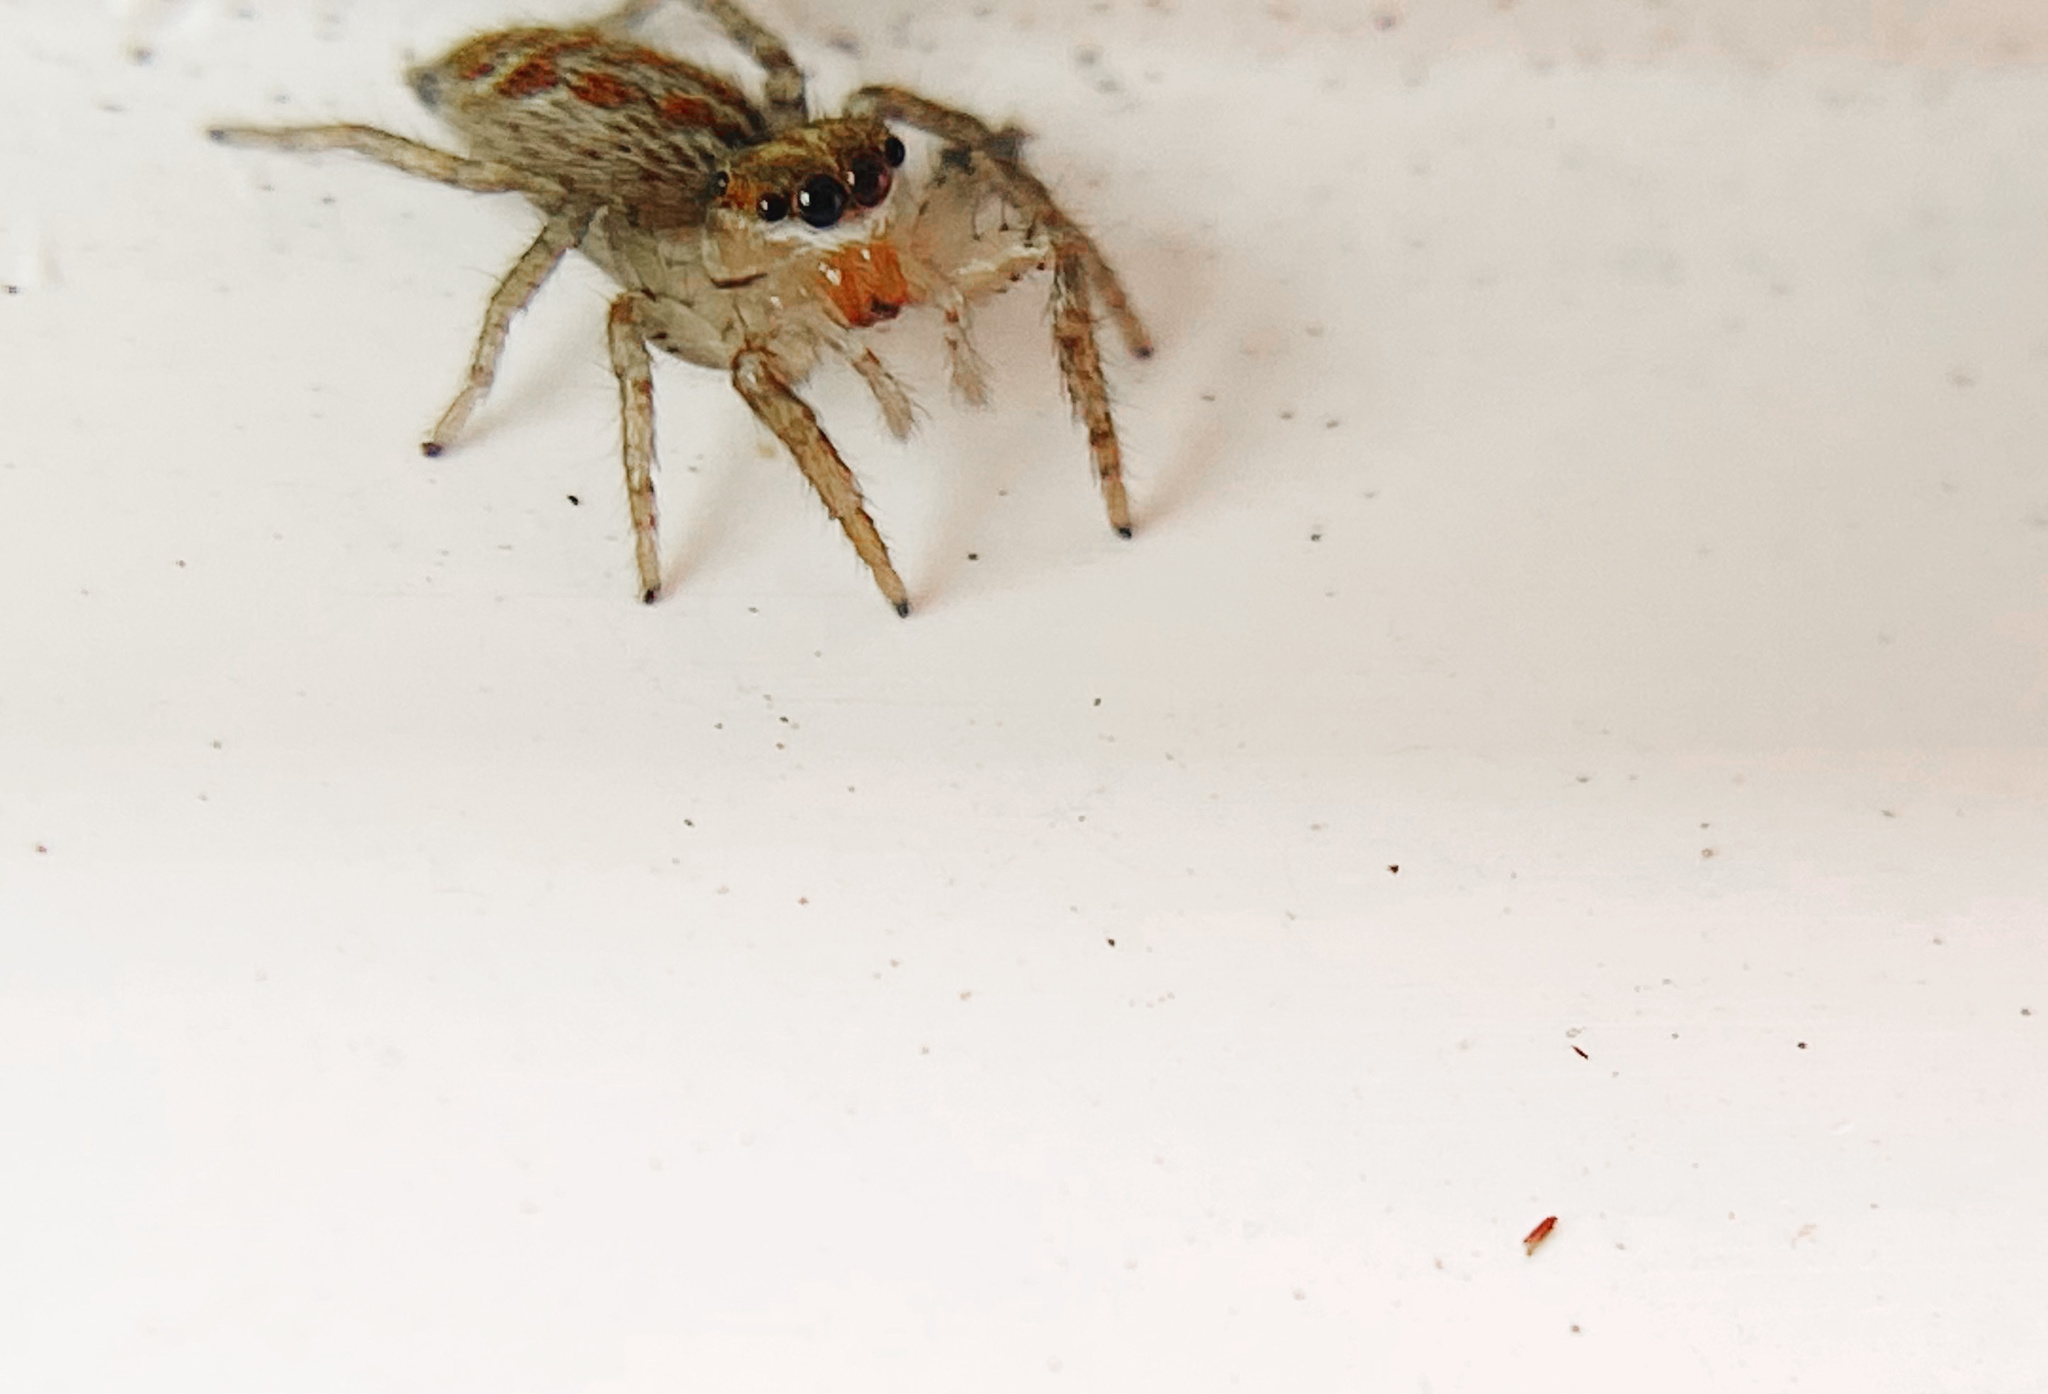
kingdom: Animalia
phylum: Arthropoda
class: Arachnida
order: Araneae
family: Salticidae
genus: Maevia
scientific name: Maevia inclemens
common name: Dimorphic jumper
